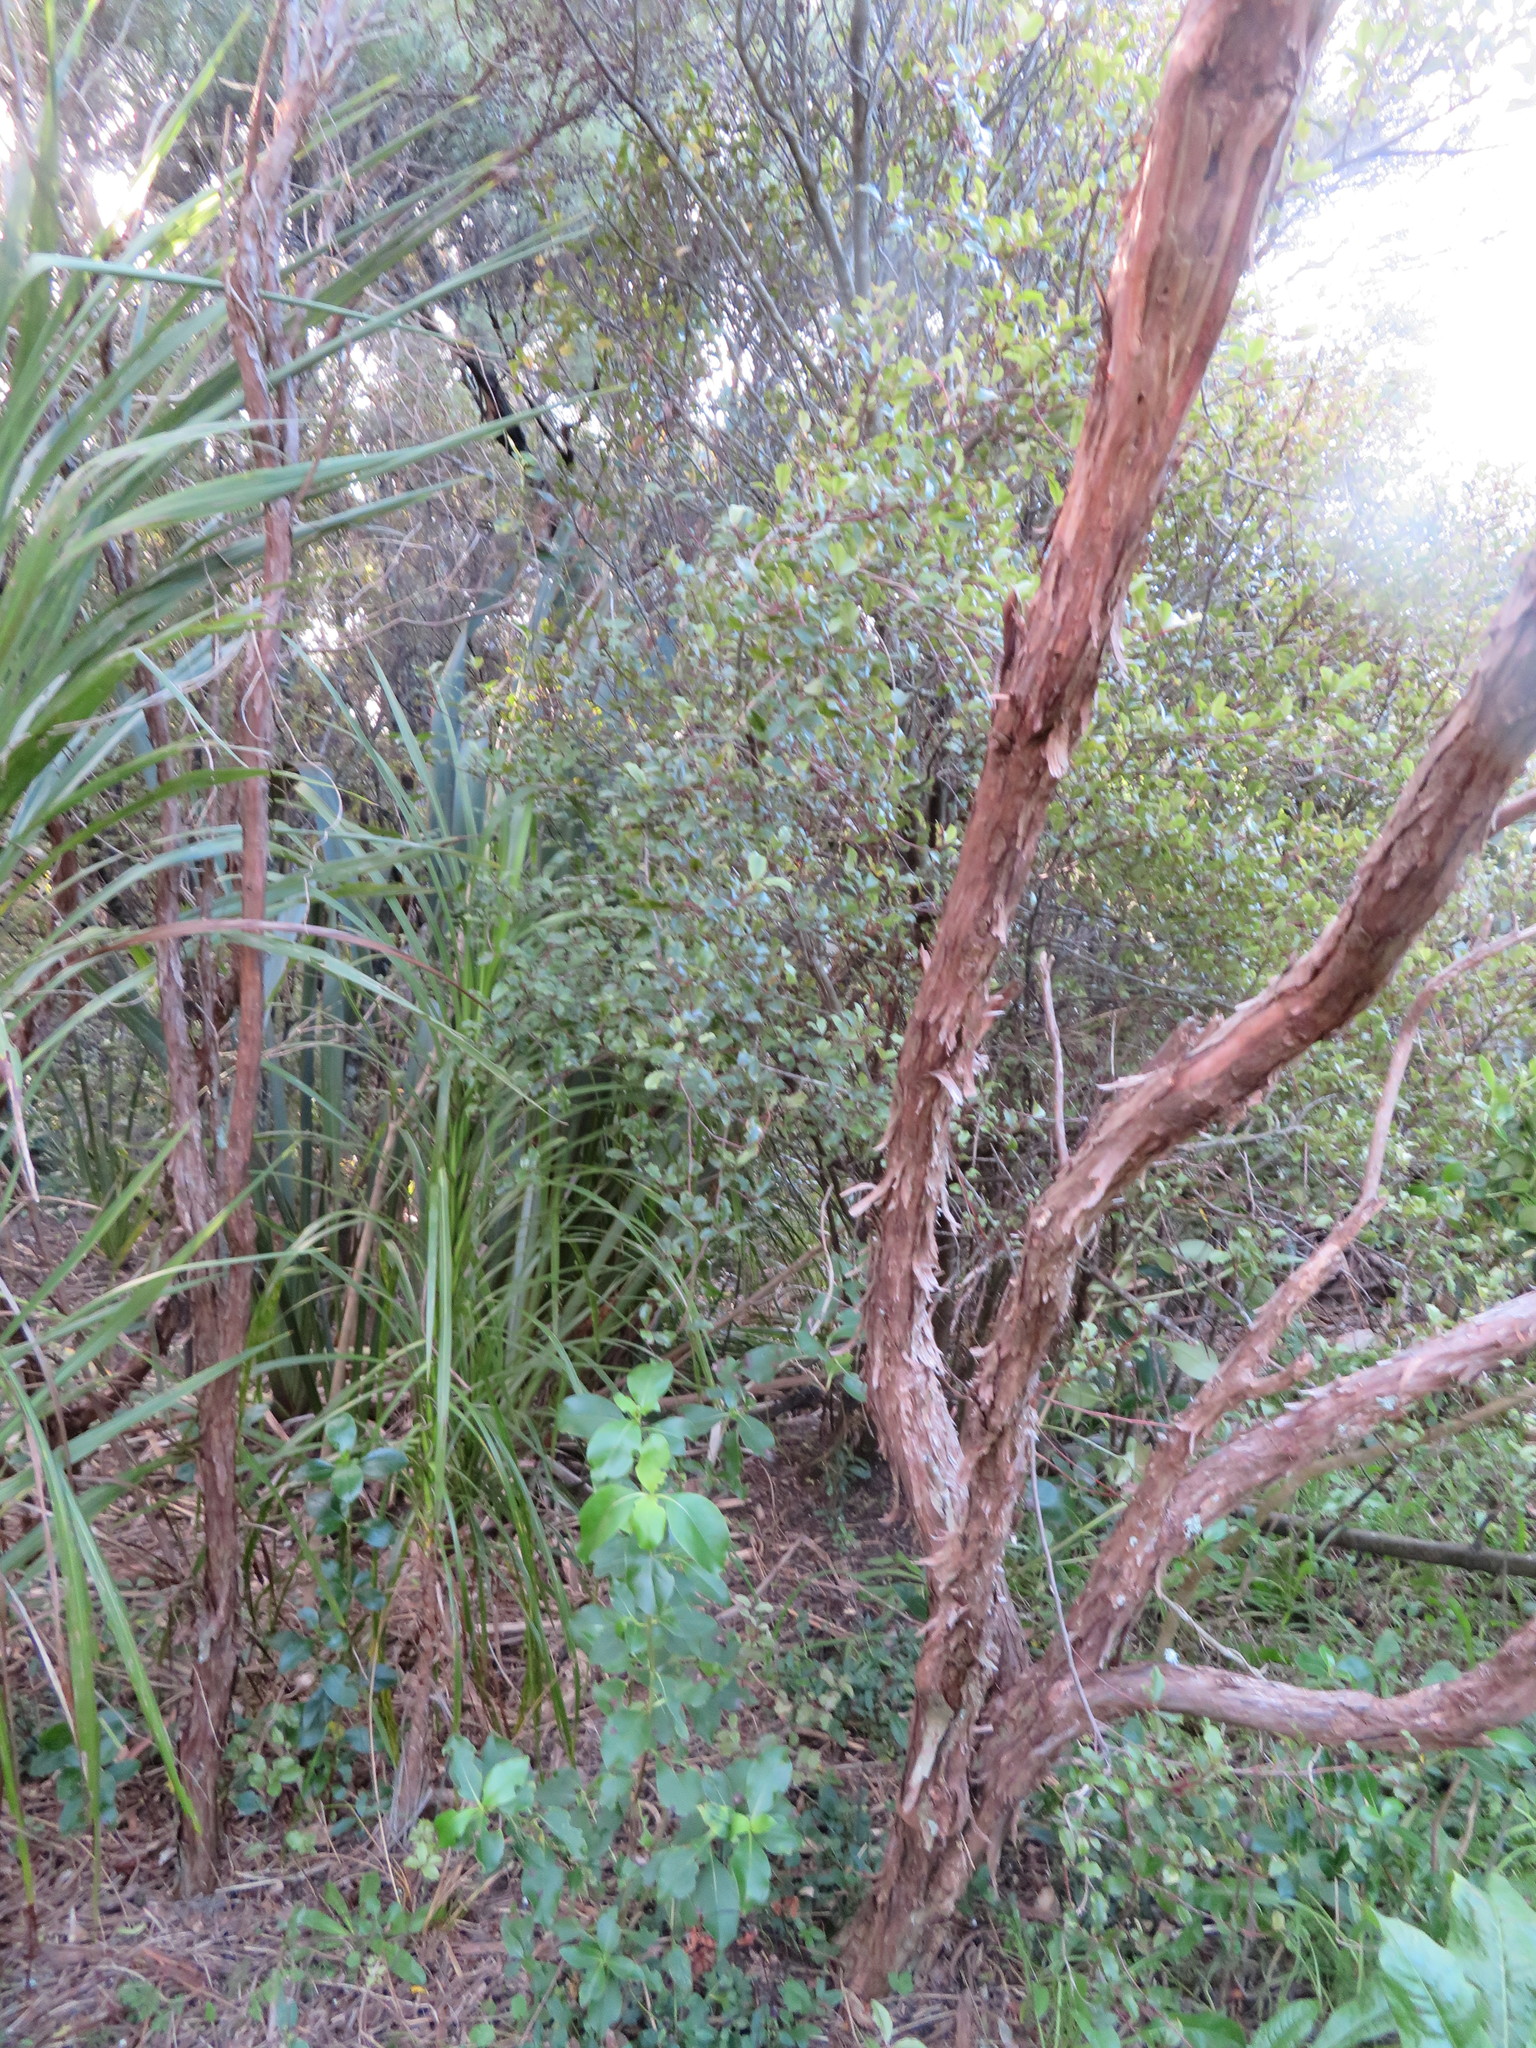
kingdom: Plantae
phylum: Tracheophyta
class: Magnoliopsida
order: Ericales
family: Primulaceae
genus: Myrsine
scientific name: Myrsine australis
